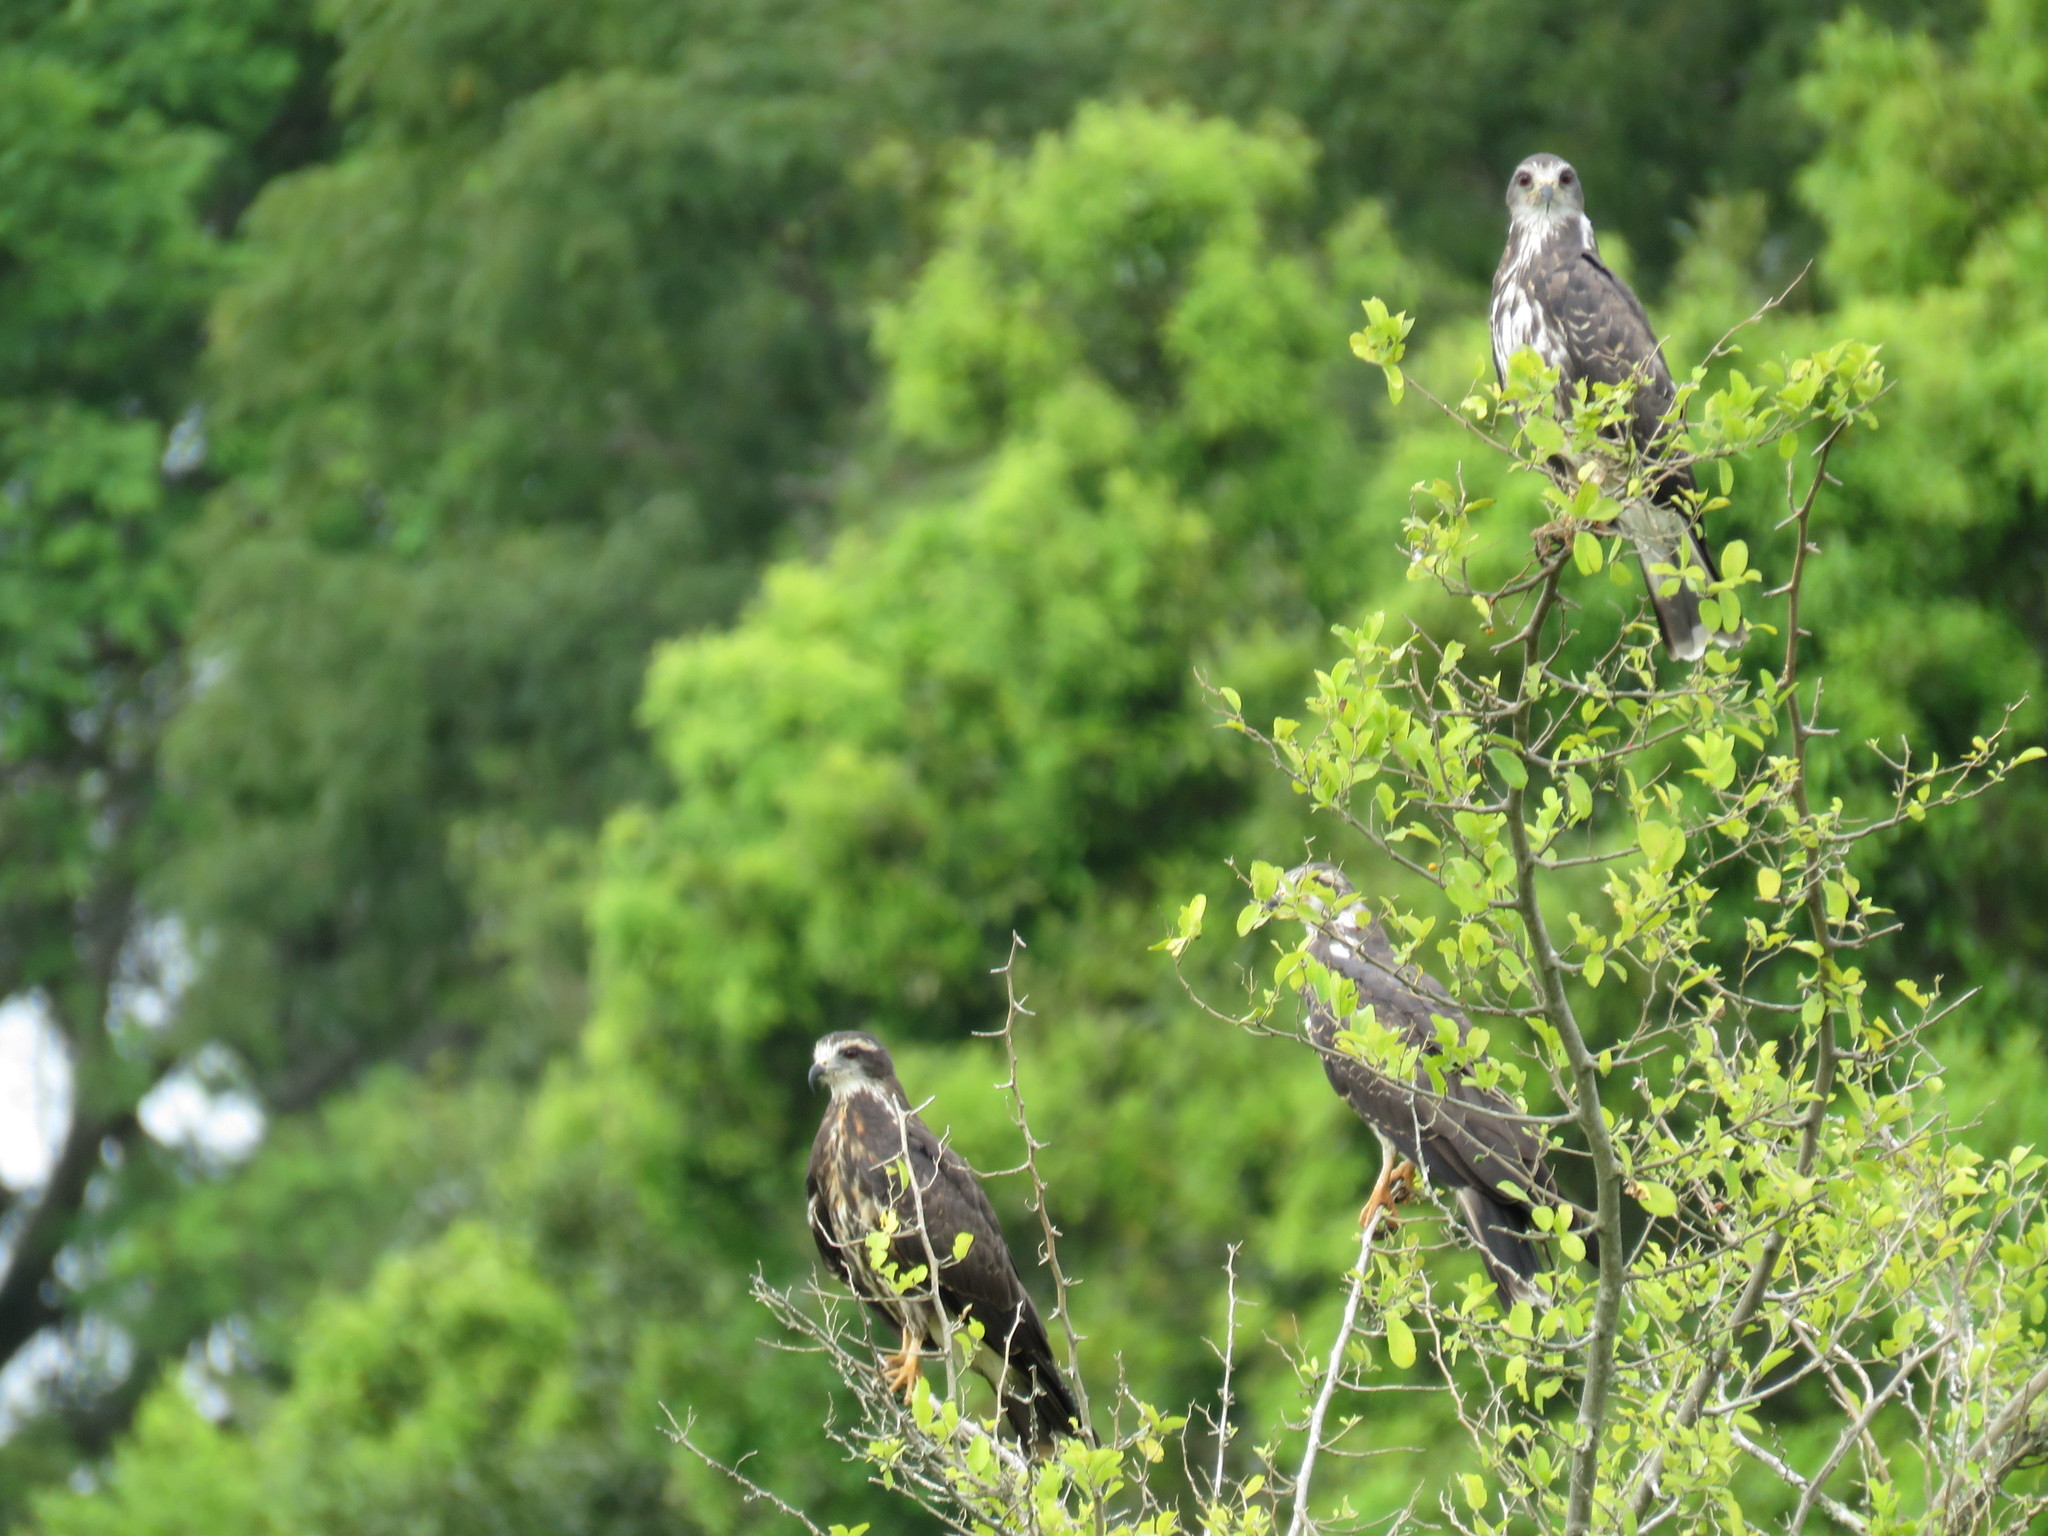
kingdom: Animalia
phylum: Chordata
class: Aves
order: Accipitriformes
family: Accipitridae
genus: Rostrhamus
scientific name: Rostrhamus sociabilis
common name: Snail kite
